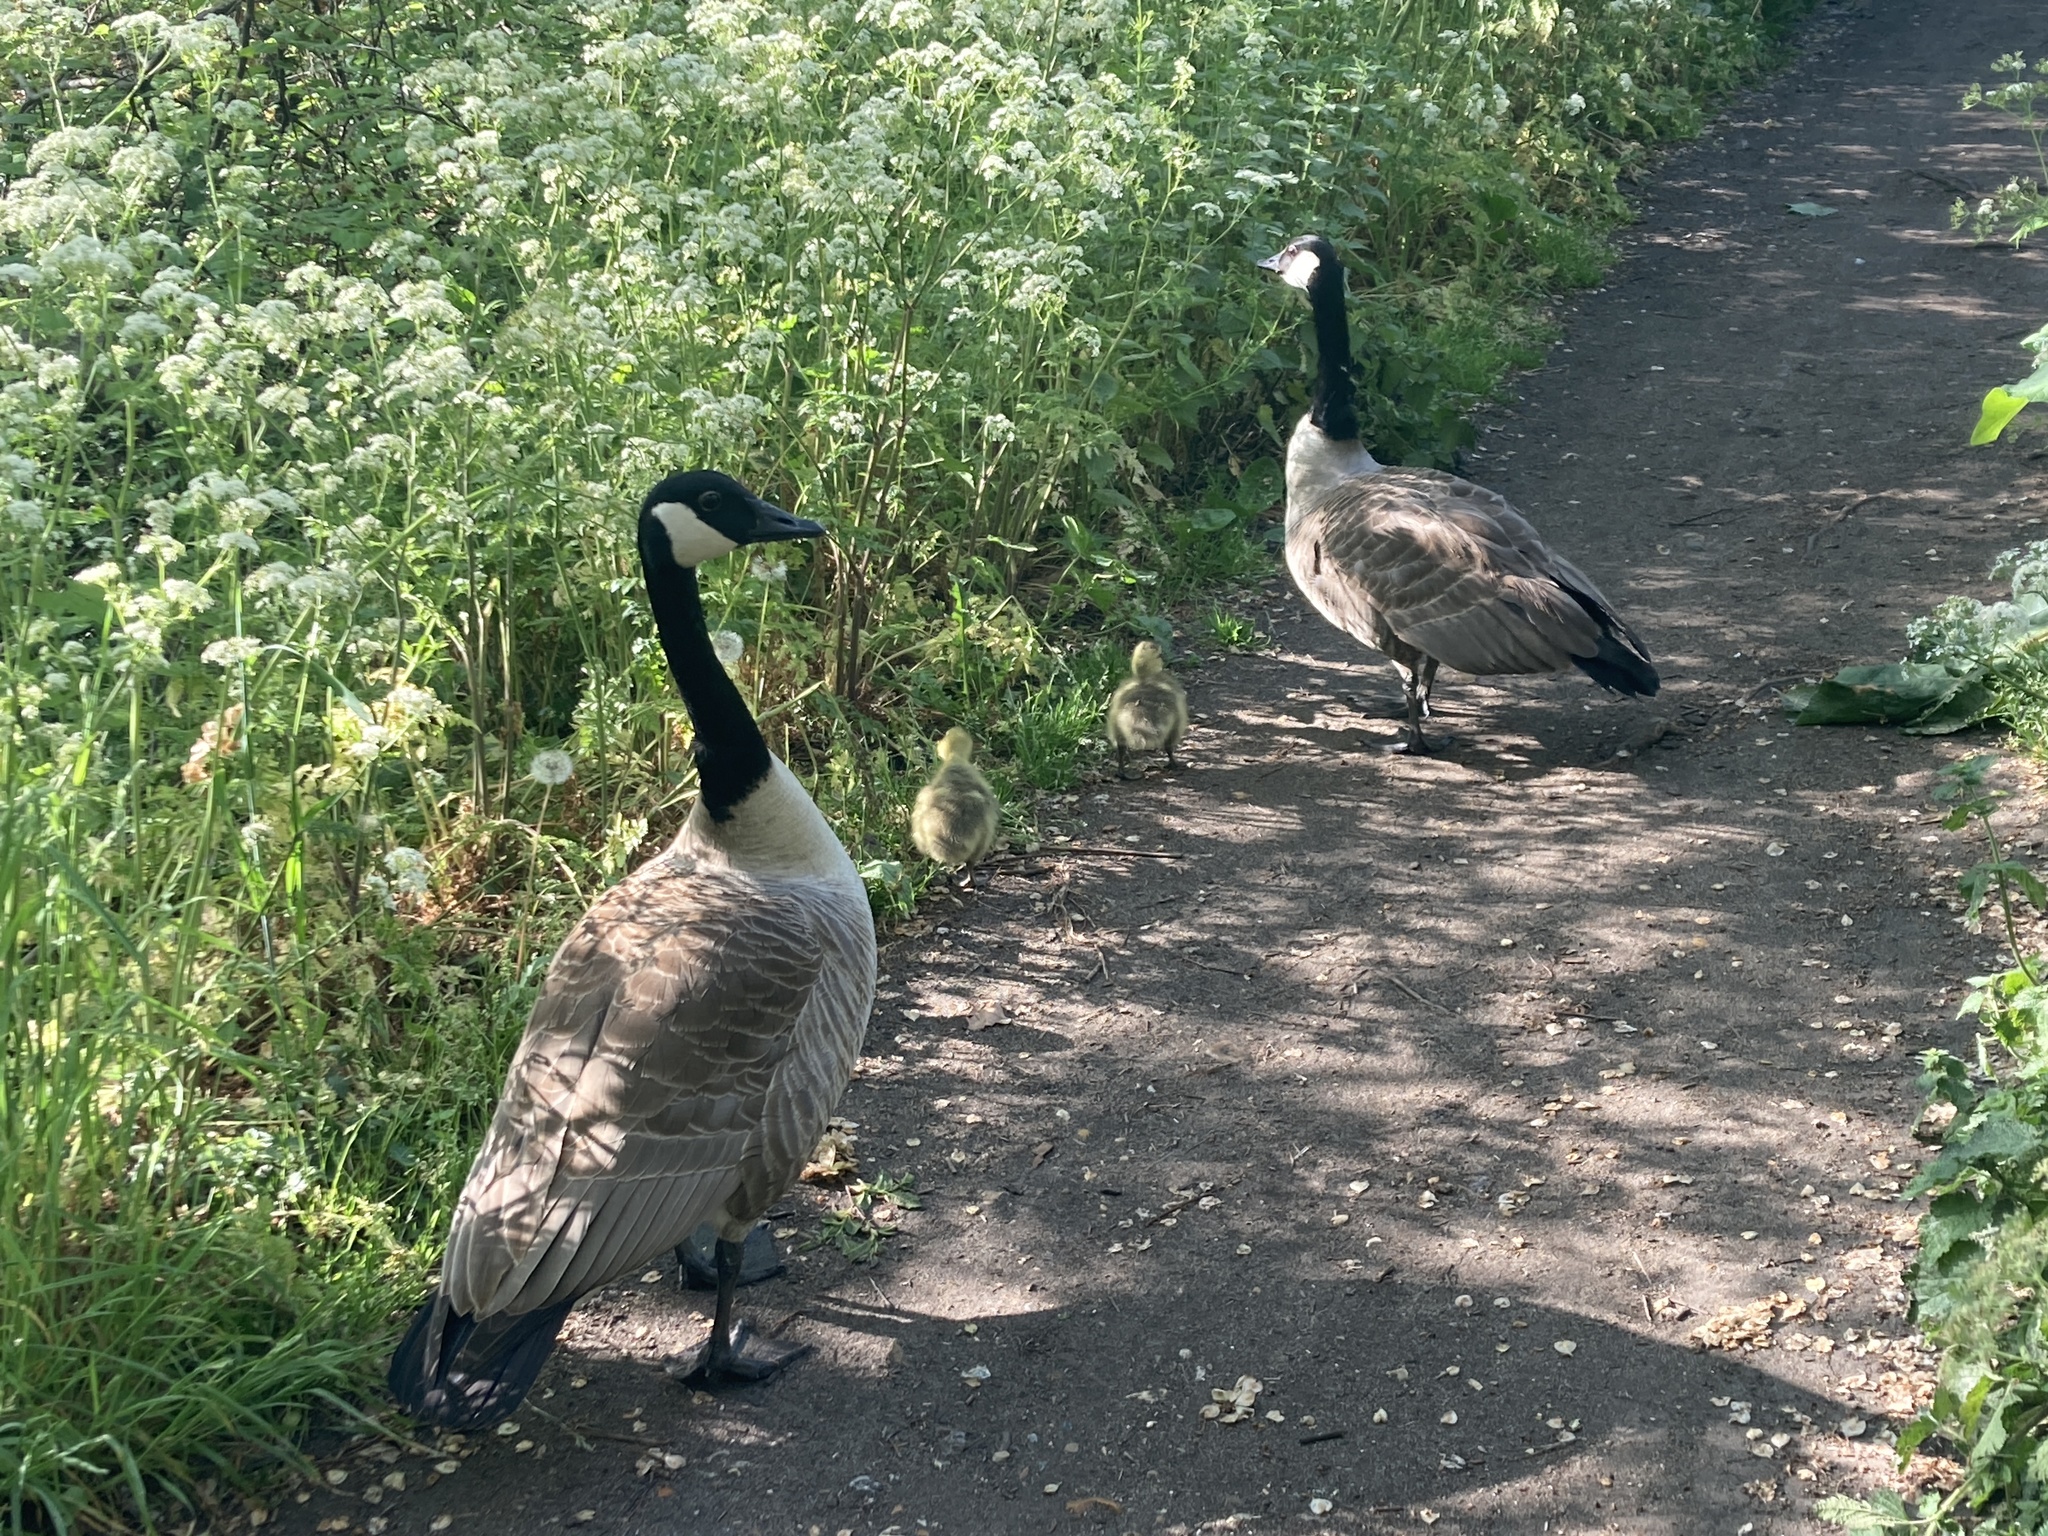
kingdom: Animalia
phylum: Chordata
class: Aves
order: Anseriformes
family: Anatidae
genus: Branta
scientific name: Branta canadensis
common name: Canada goose
